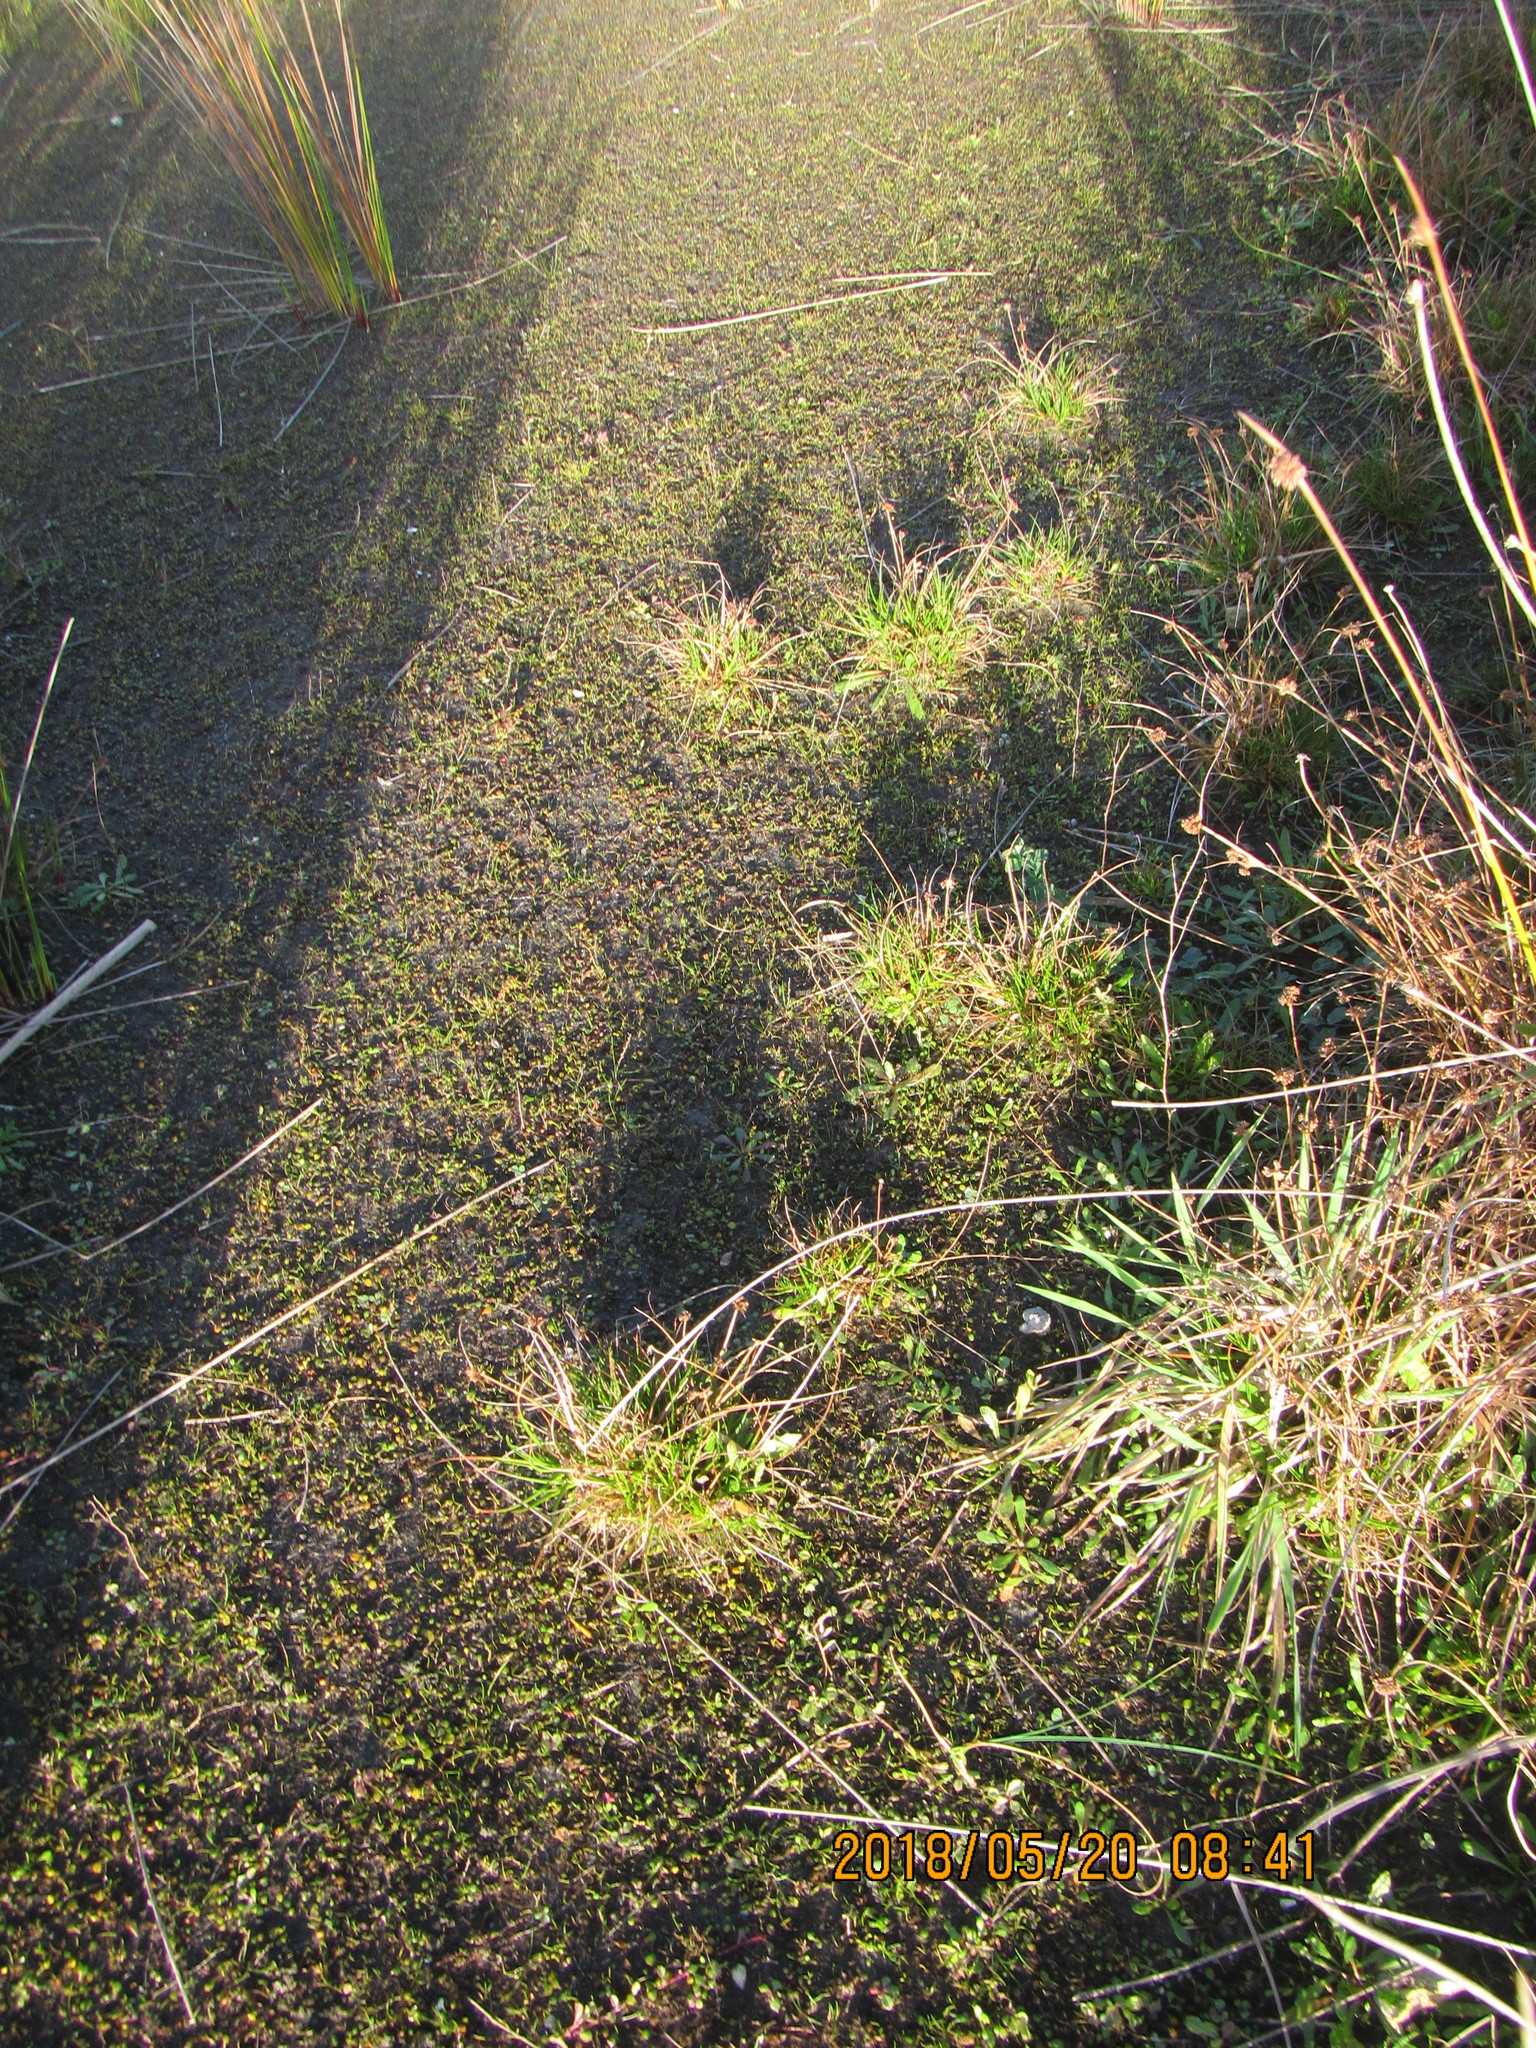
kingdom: Plantae
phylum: Tracheophyta
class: Liliopsida
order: Poales
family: Juncaceae
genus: Juncus
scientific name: Juncus caespiticius
